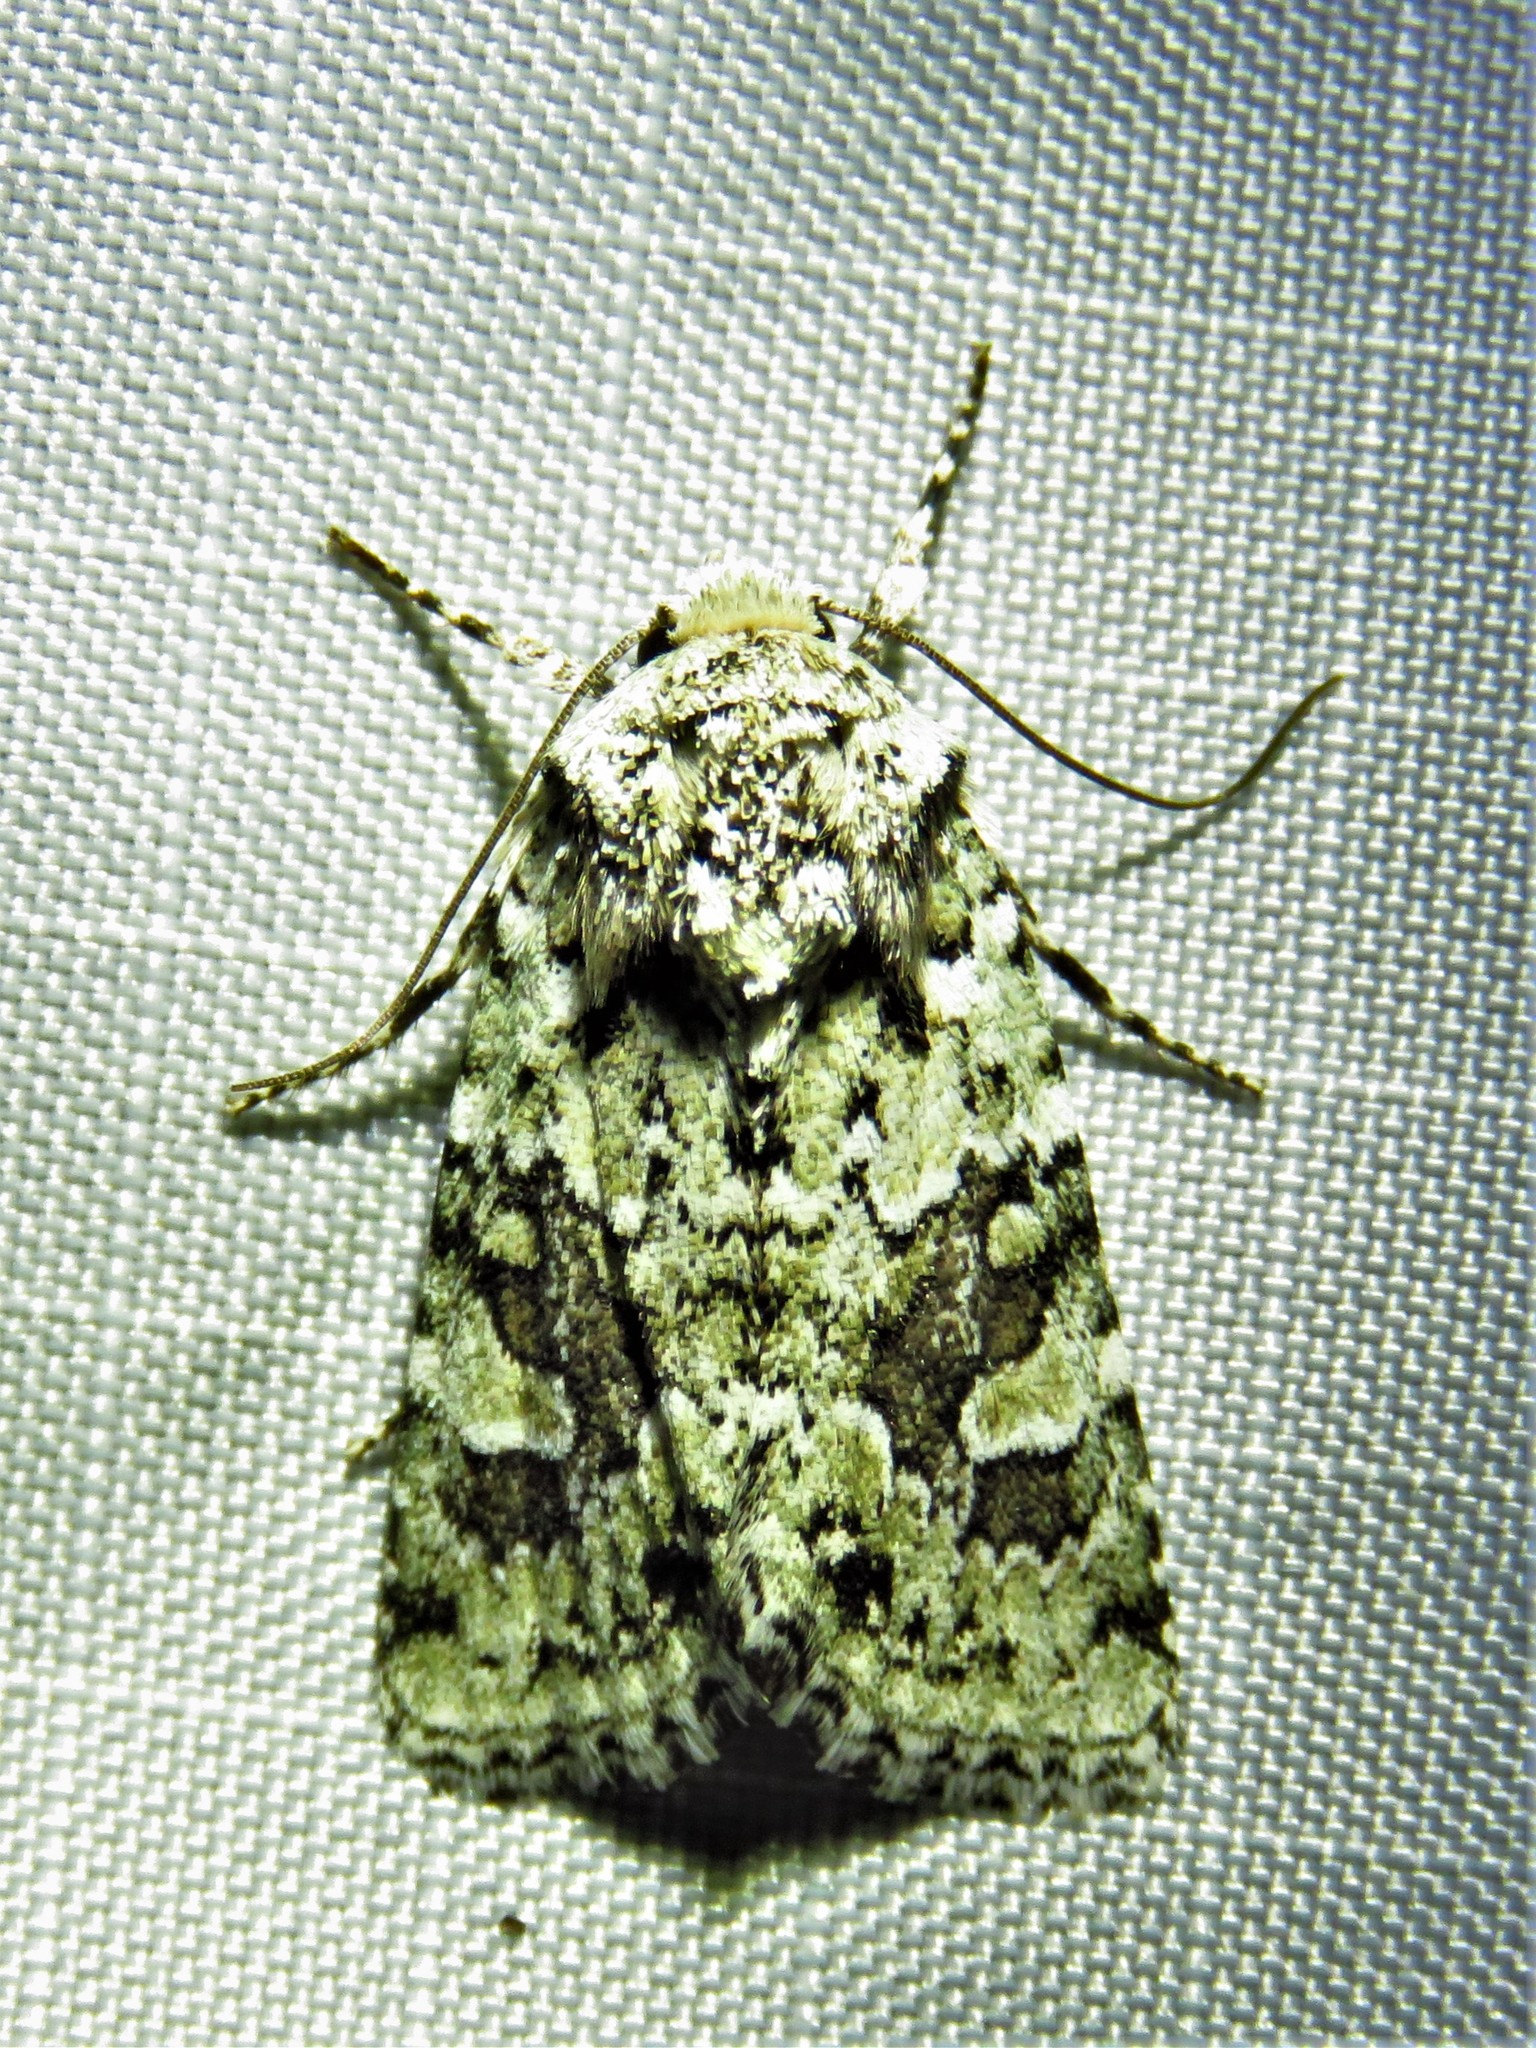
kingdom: Animalia
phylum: Arthropoda
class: Insecta
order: Lepidoptera
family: Noctuidae
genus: Lacinipolia
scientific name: Lacinipolia laudabilis
